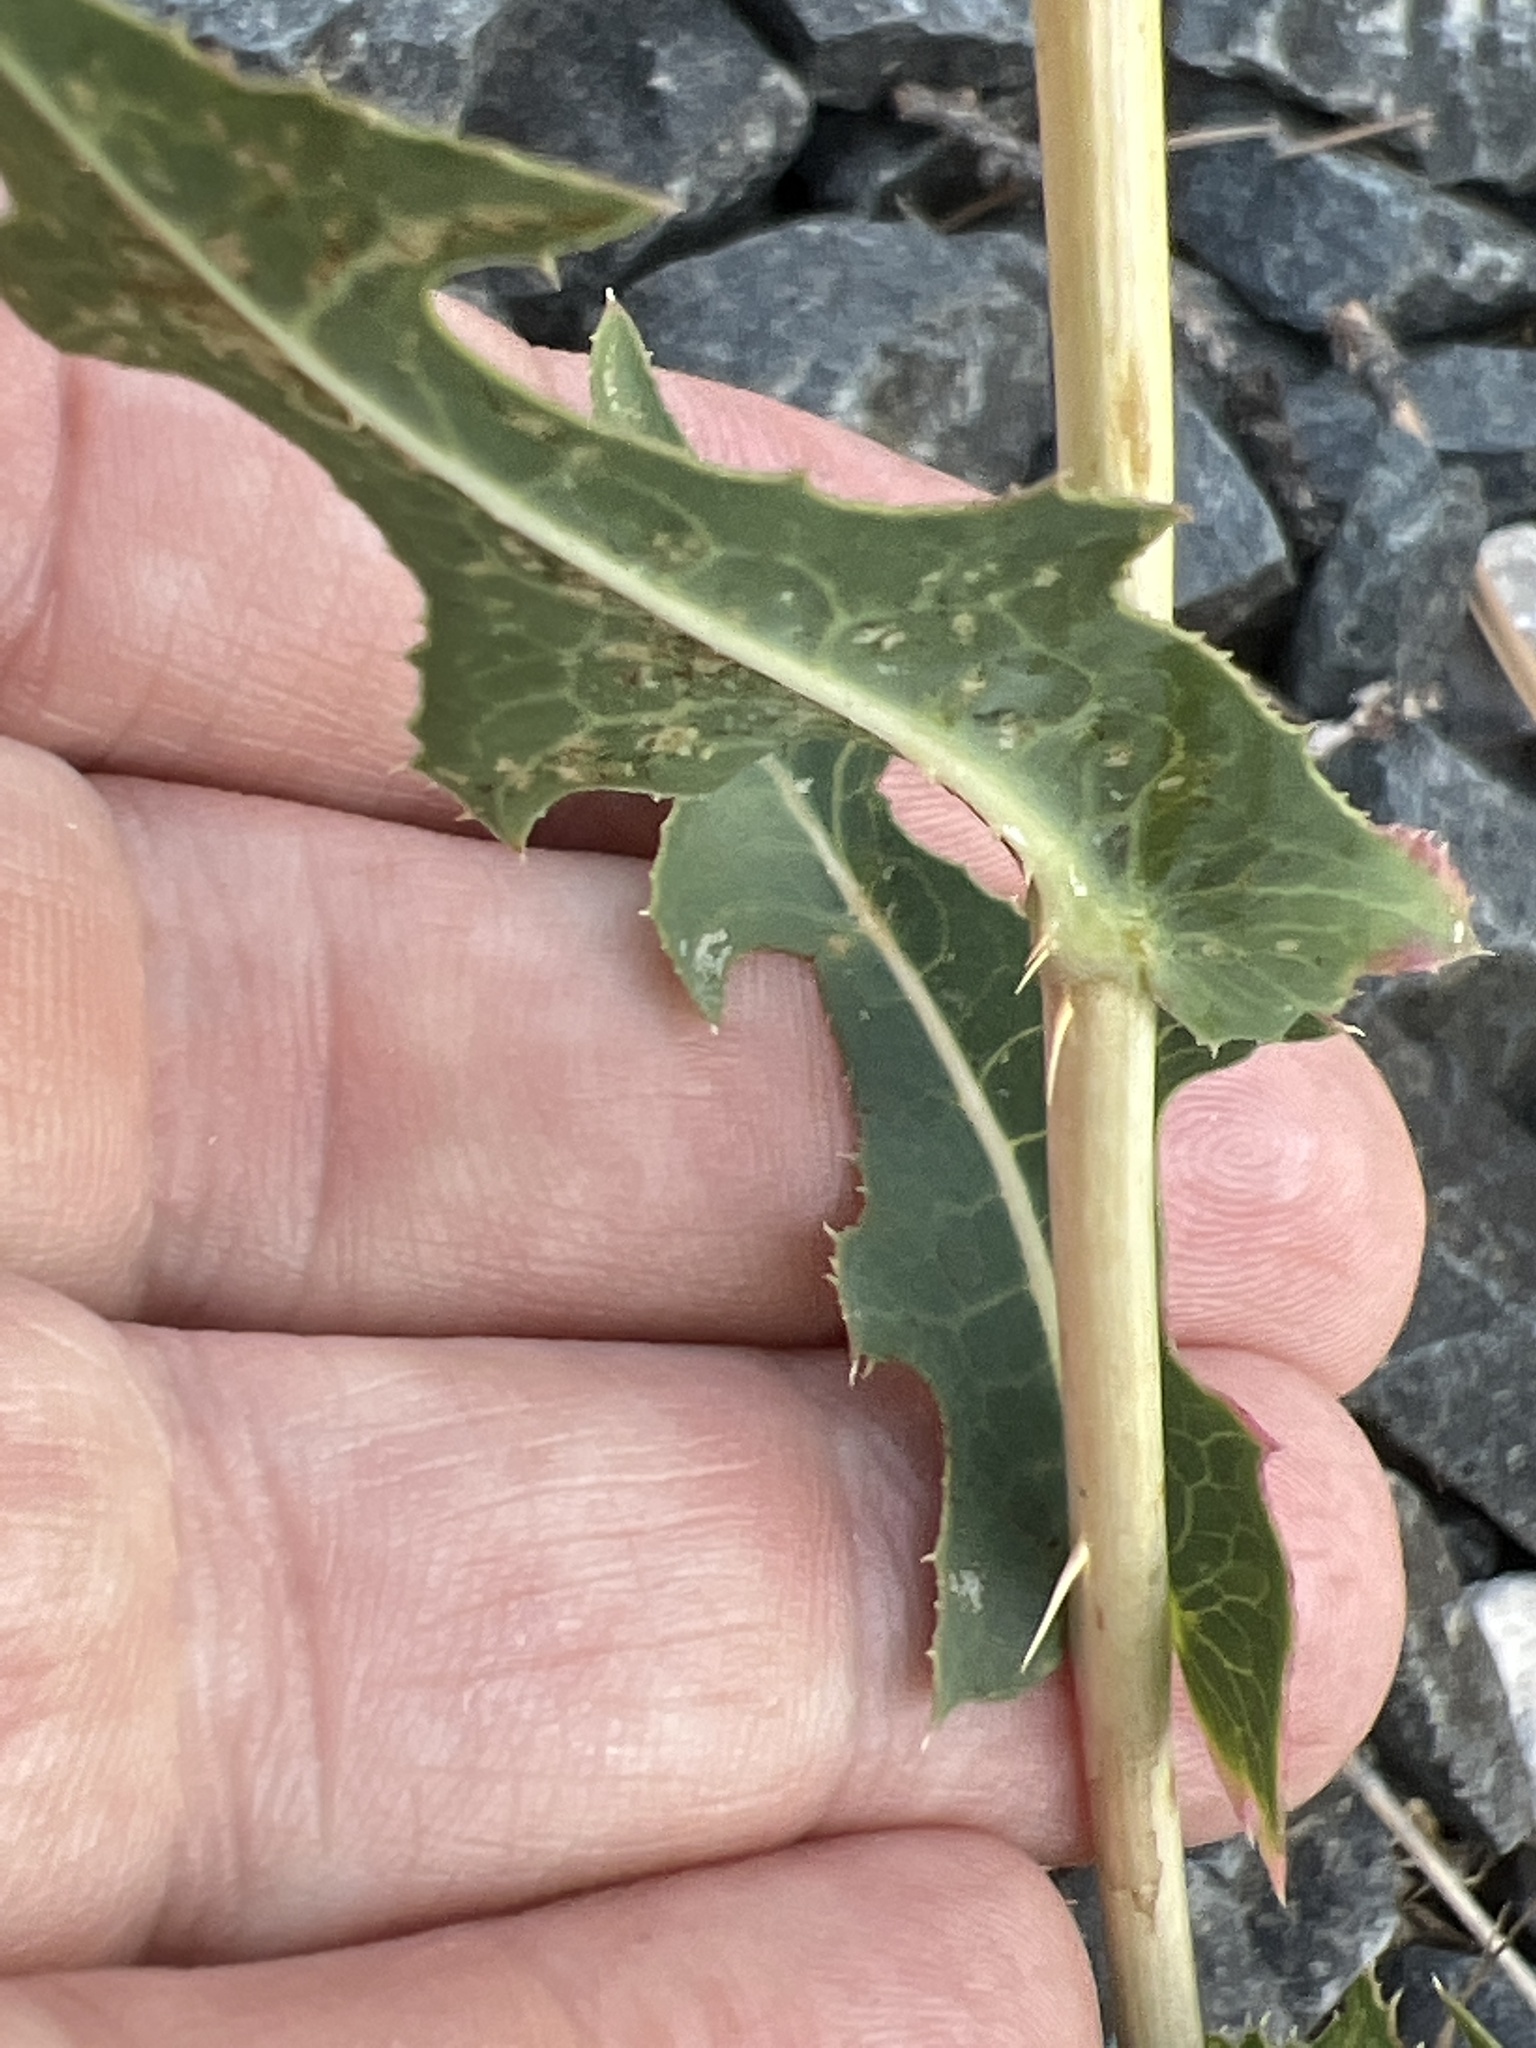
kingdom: Plantae
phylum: Tracheophyta
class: Magnoliopsida
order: Asterales
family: Asteraceae
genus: Lactuca
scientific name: Lactuca serriola
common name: Prickly lettuce
